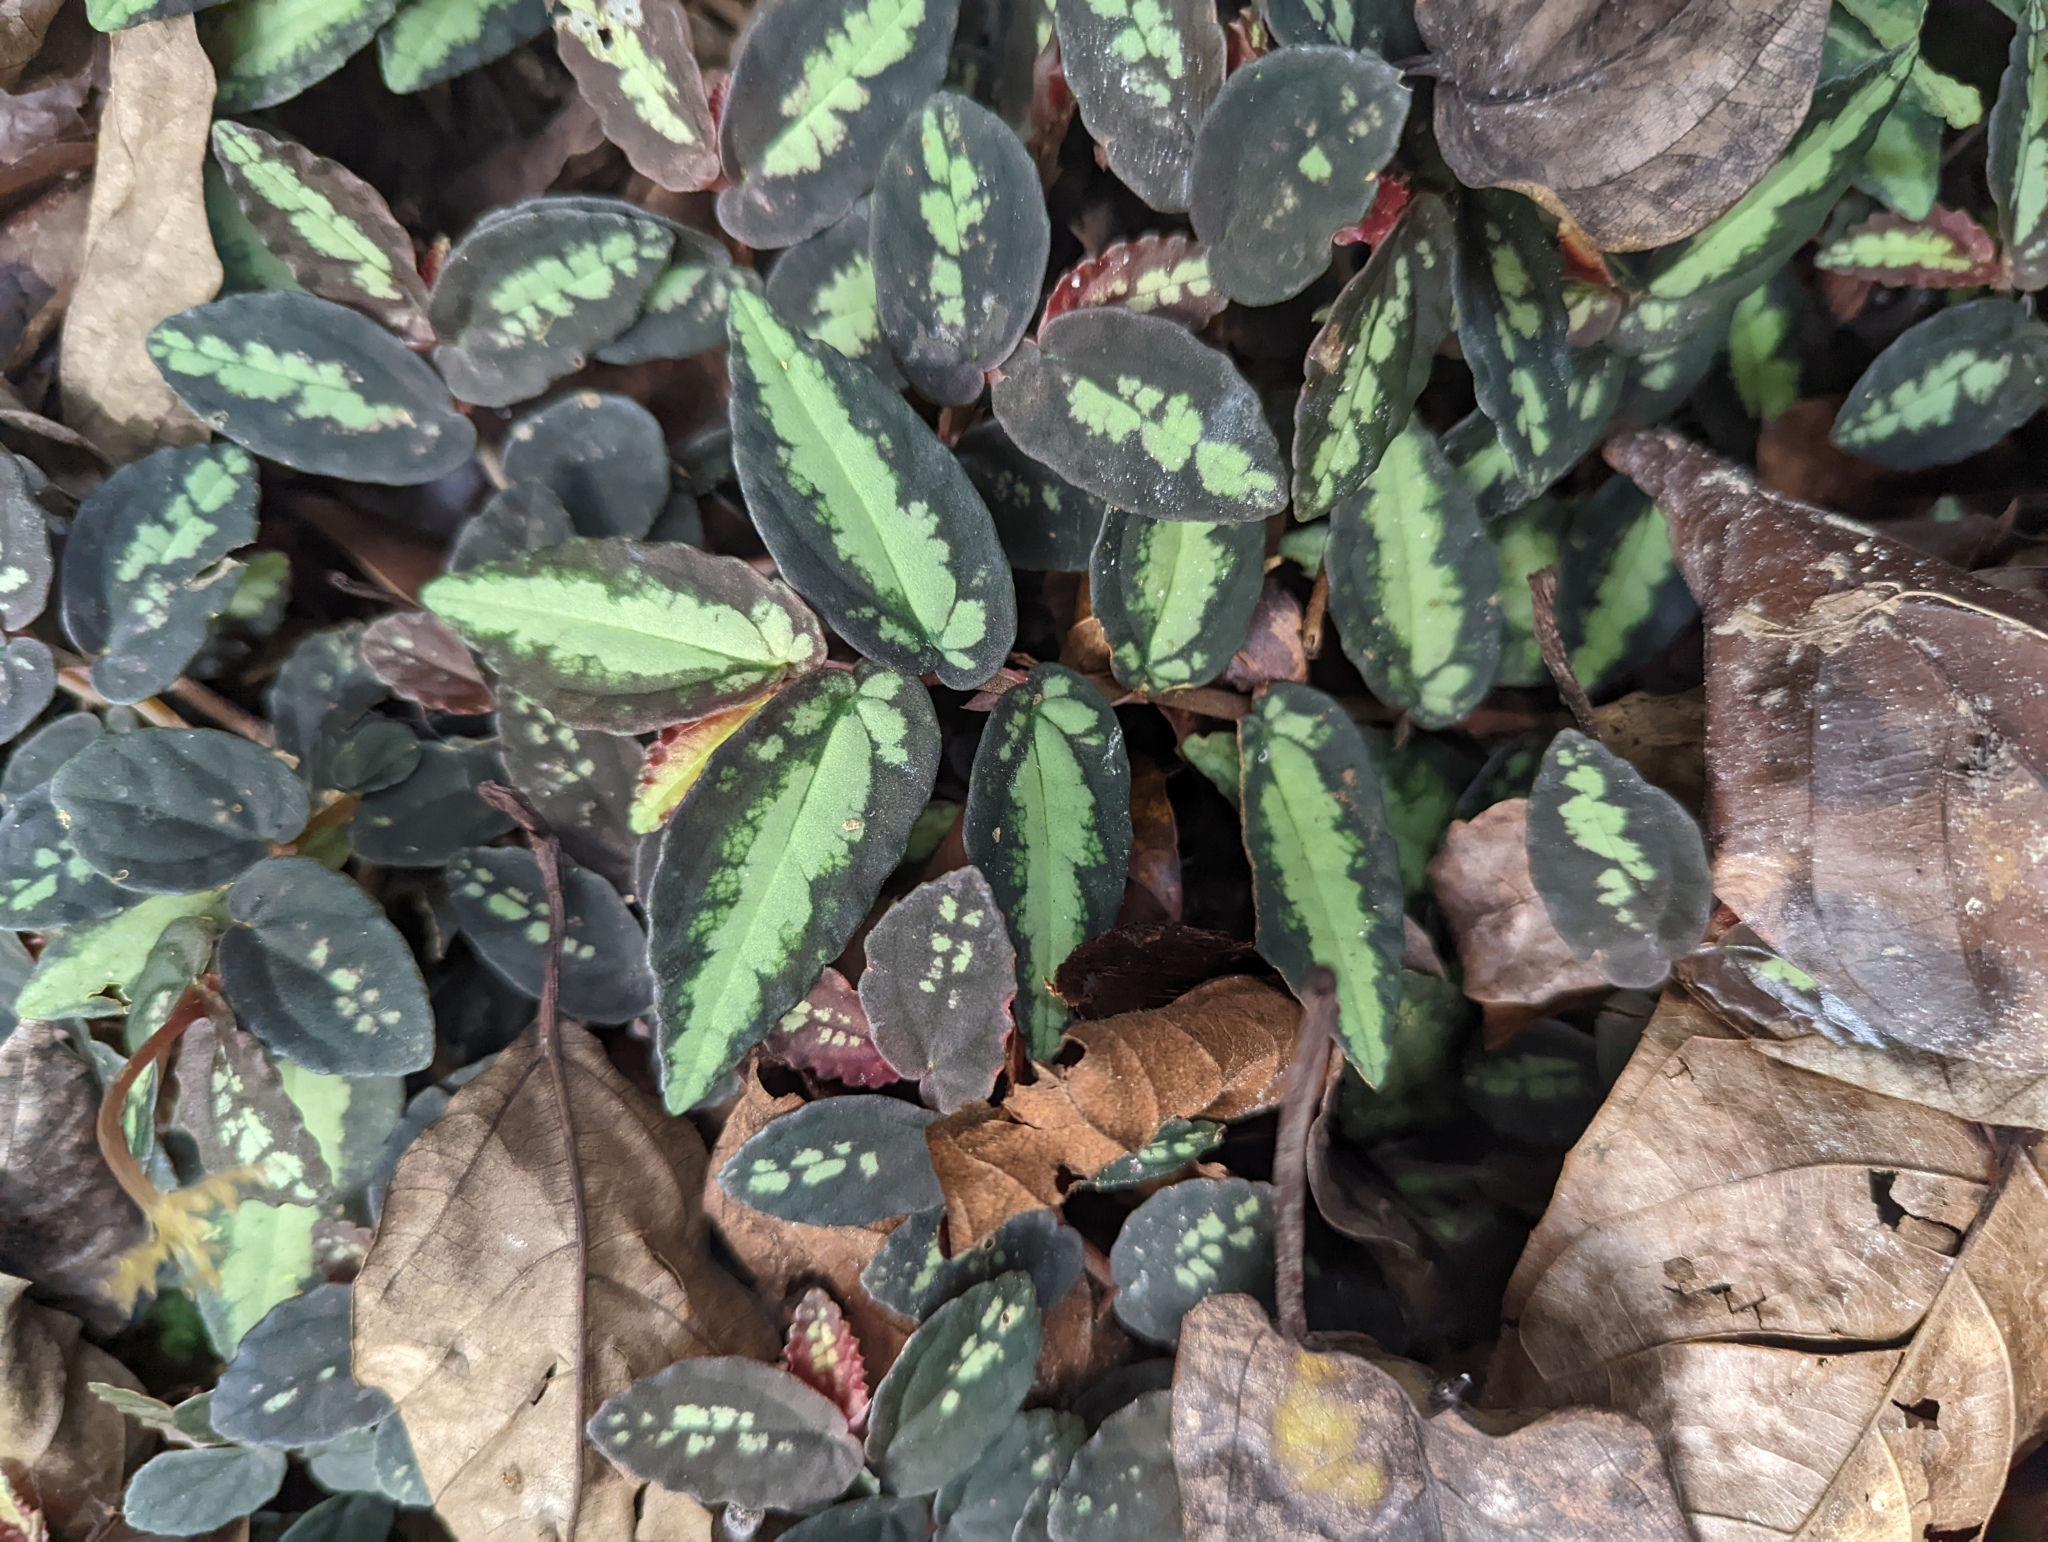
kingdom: Plantae
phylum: Tracheophyta
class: Magnoliopsida
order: Rosales
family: Urticaceae
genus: Procris
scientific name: Procris repens
